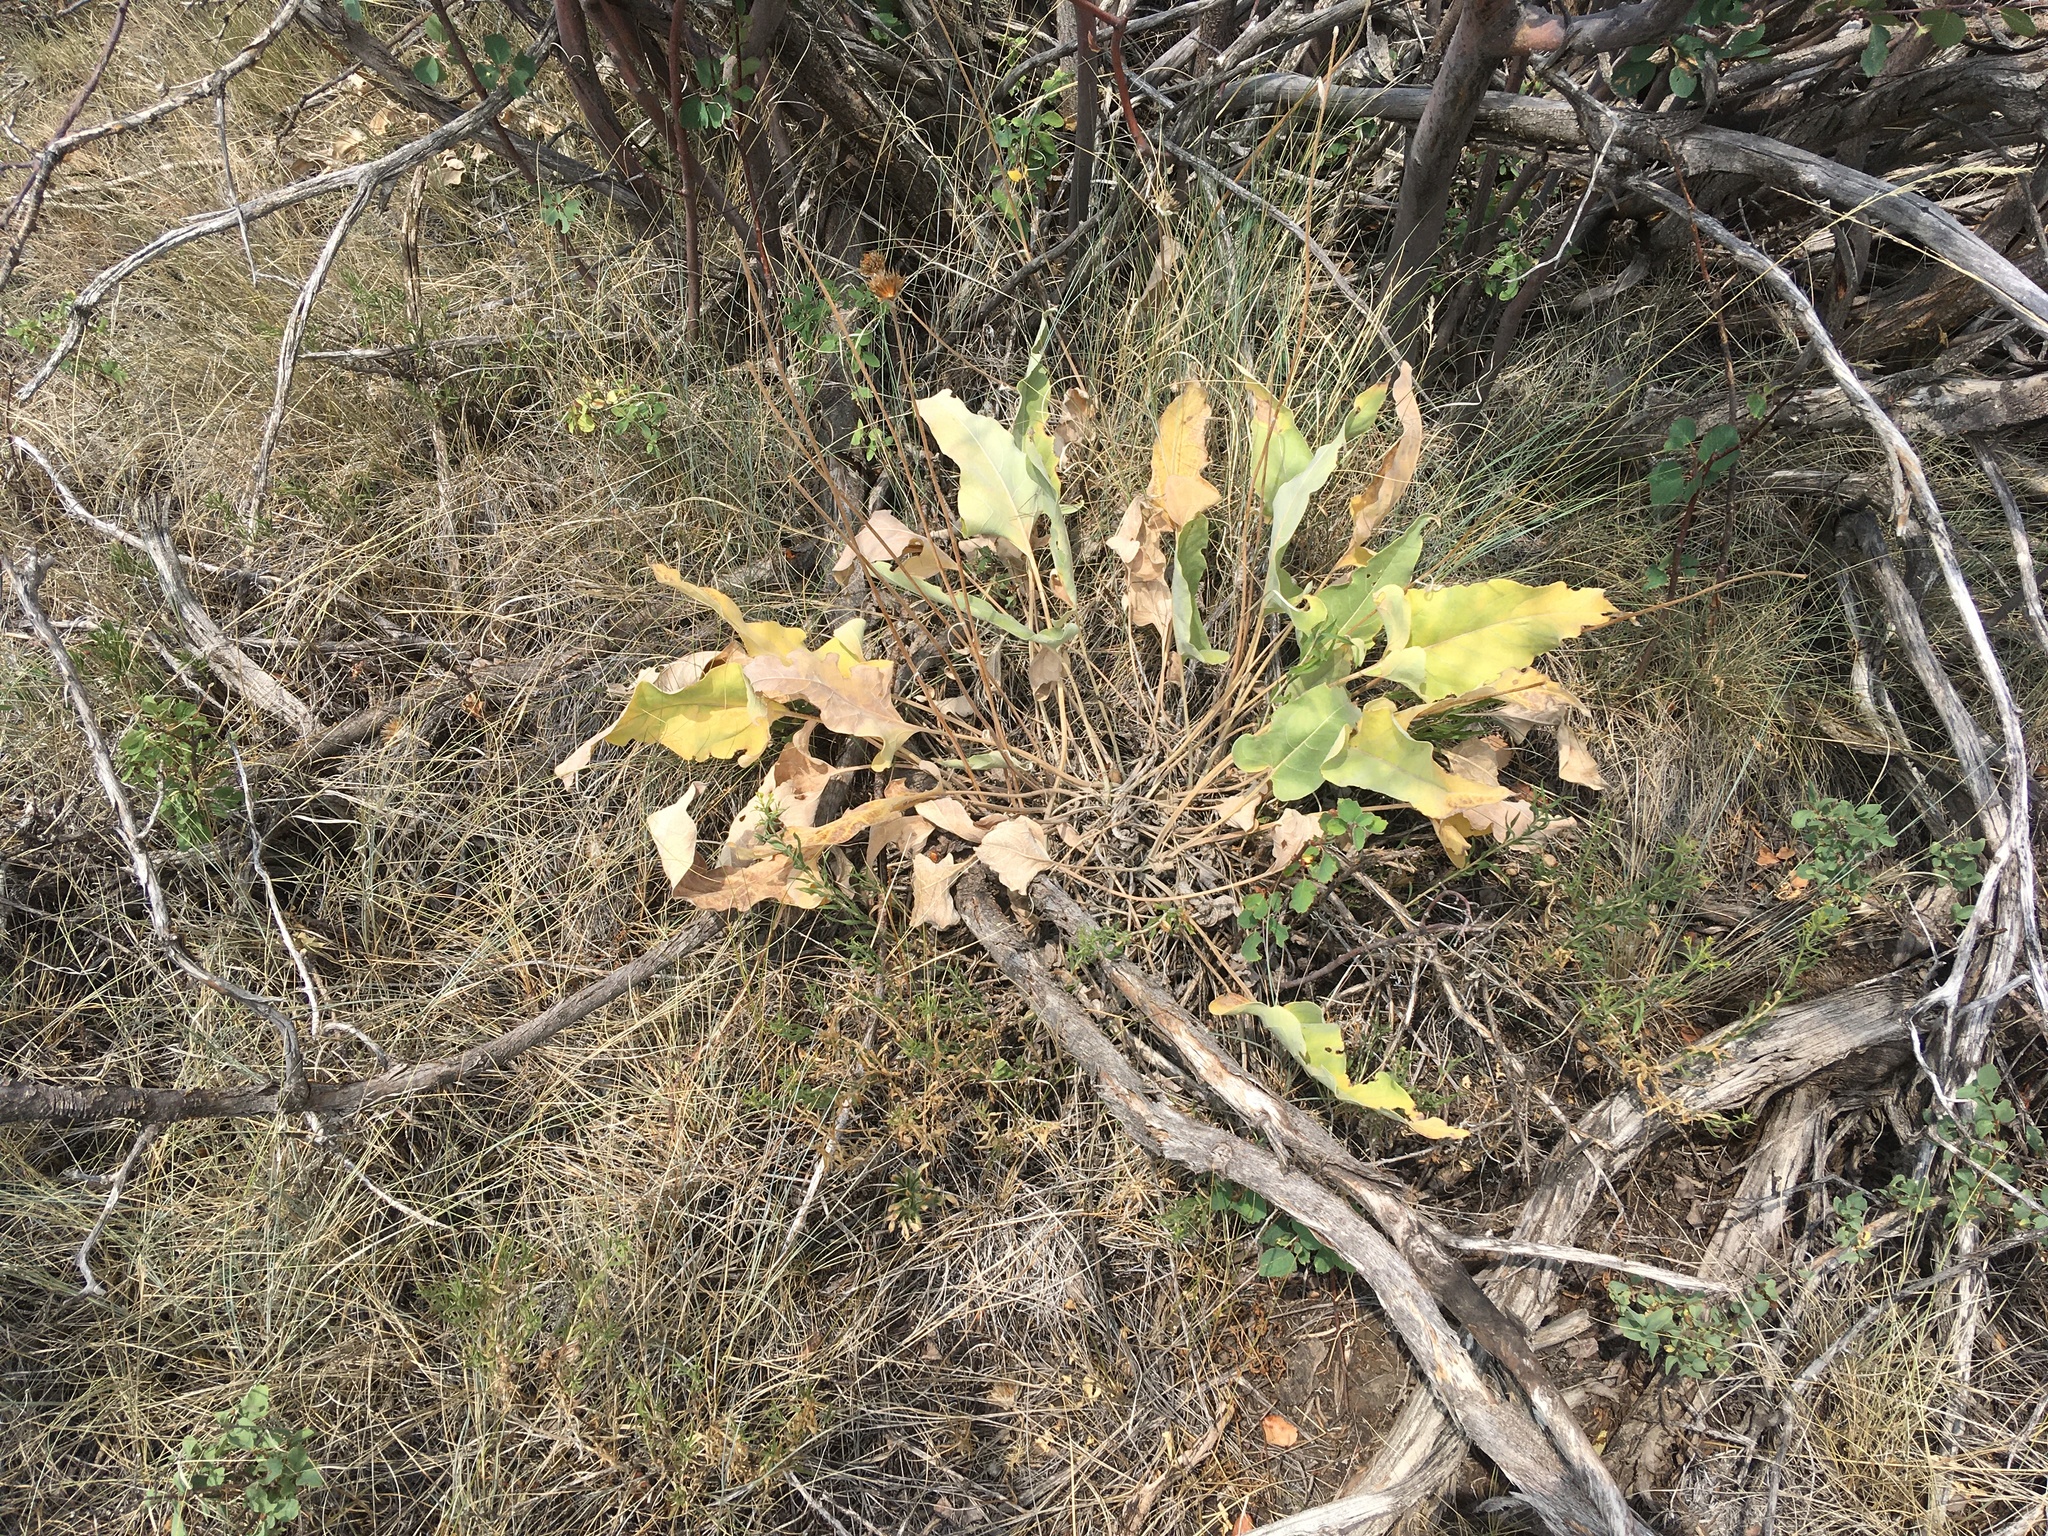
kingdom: Plantae
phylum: Tracheophyta
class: Magnoliopsida
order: Asterales
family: Asteraceae
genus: Wyethia
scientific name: Wyethia sagittata
